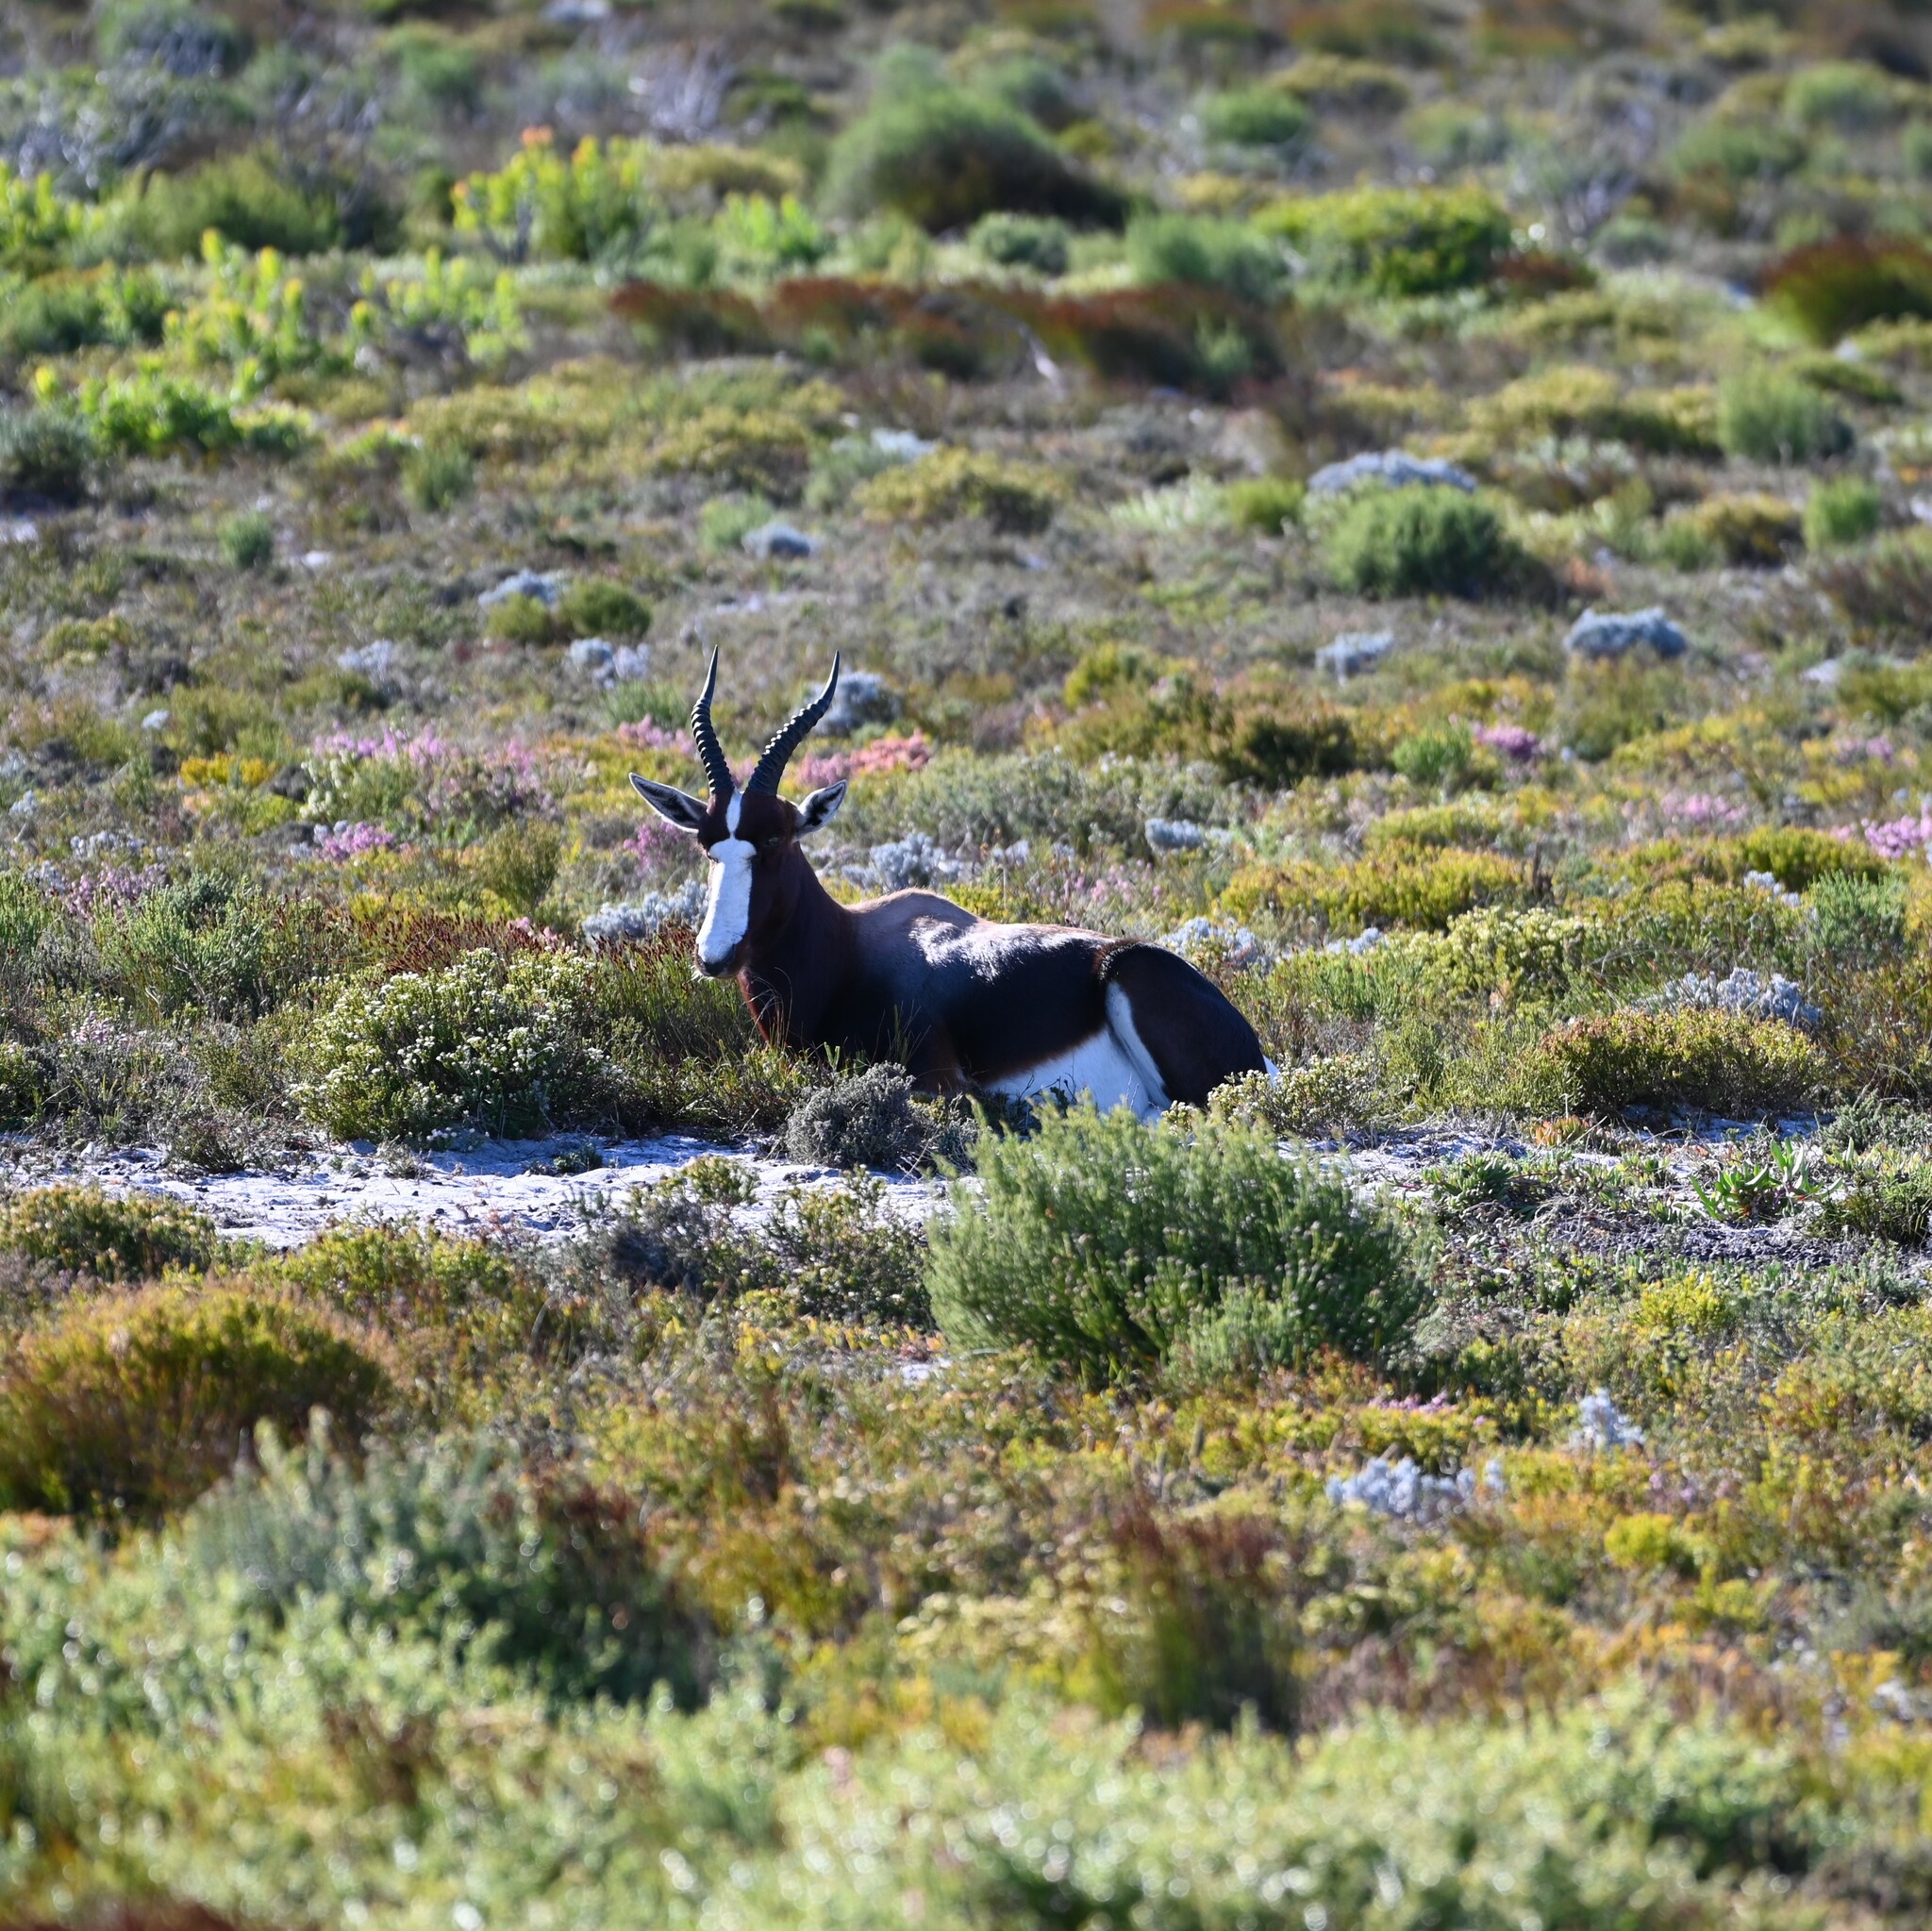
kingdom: Animalia
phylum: Chordata
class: Mammalia
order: Artiodactyla
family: Bovidae
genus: Damaliscus
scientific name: Damaliscus pygargus
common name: Bontebok
